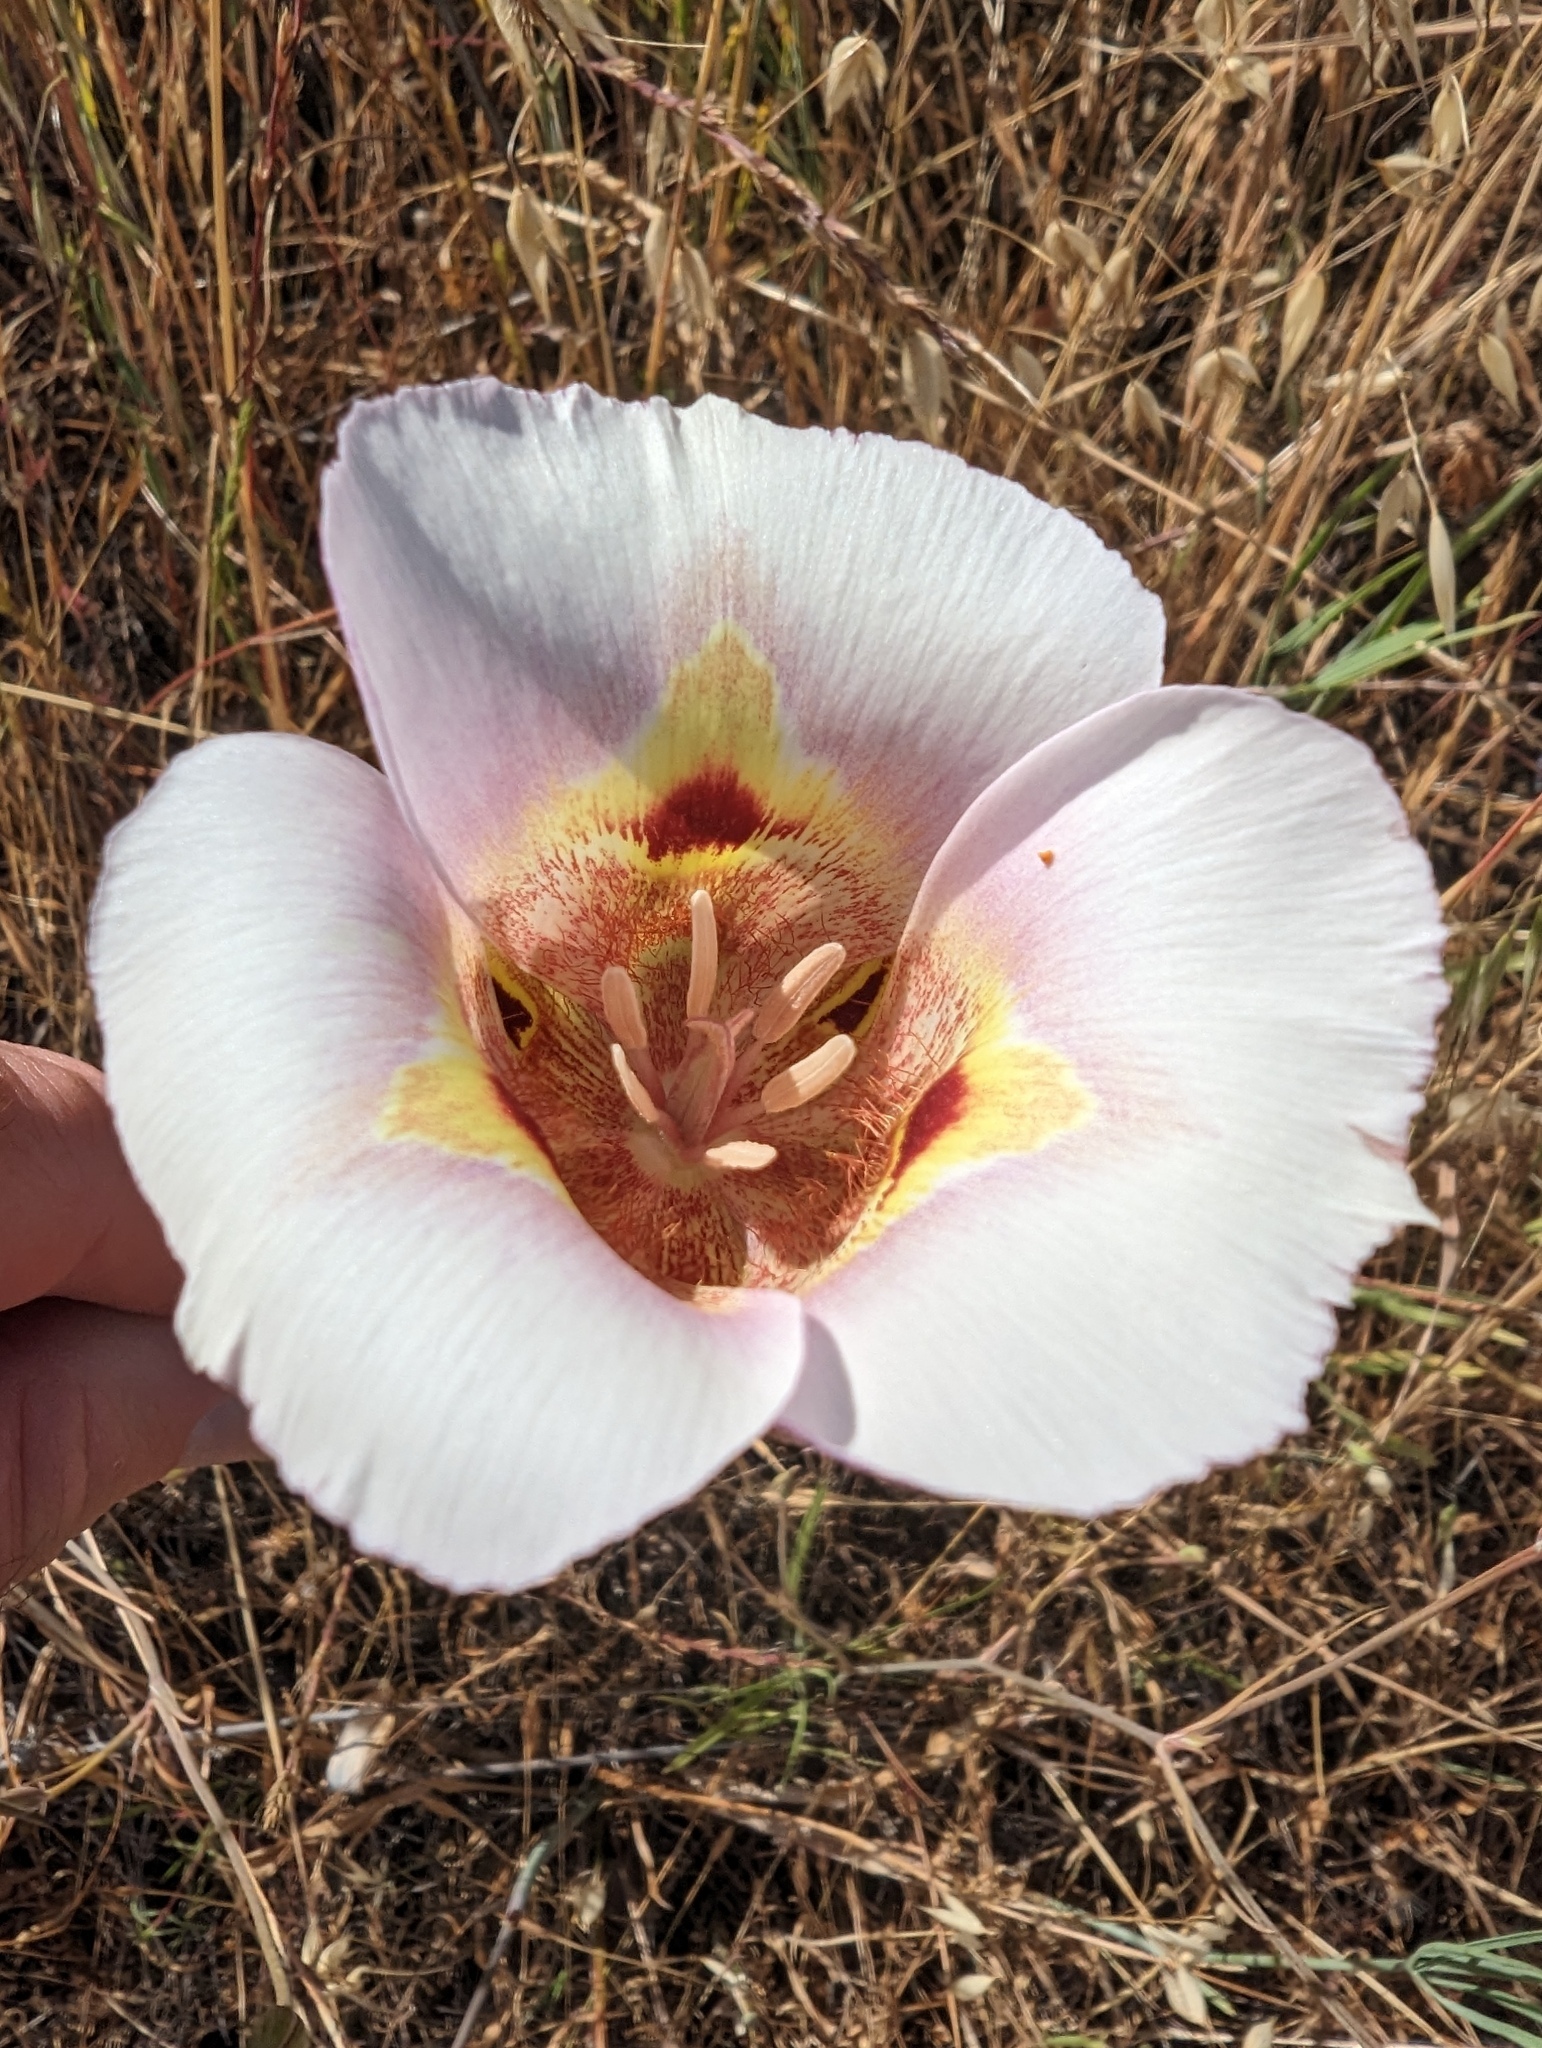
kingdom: Plantae
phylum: Tracheophyta
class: Liliopsida
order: Liliales
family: Liliaceae
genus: Calochortus
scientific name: Calochortus argillosus
